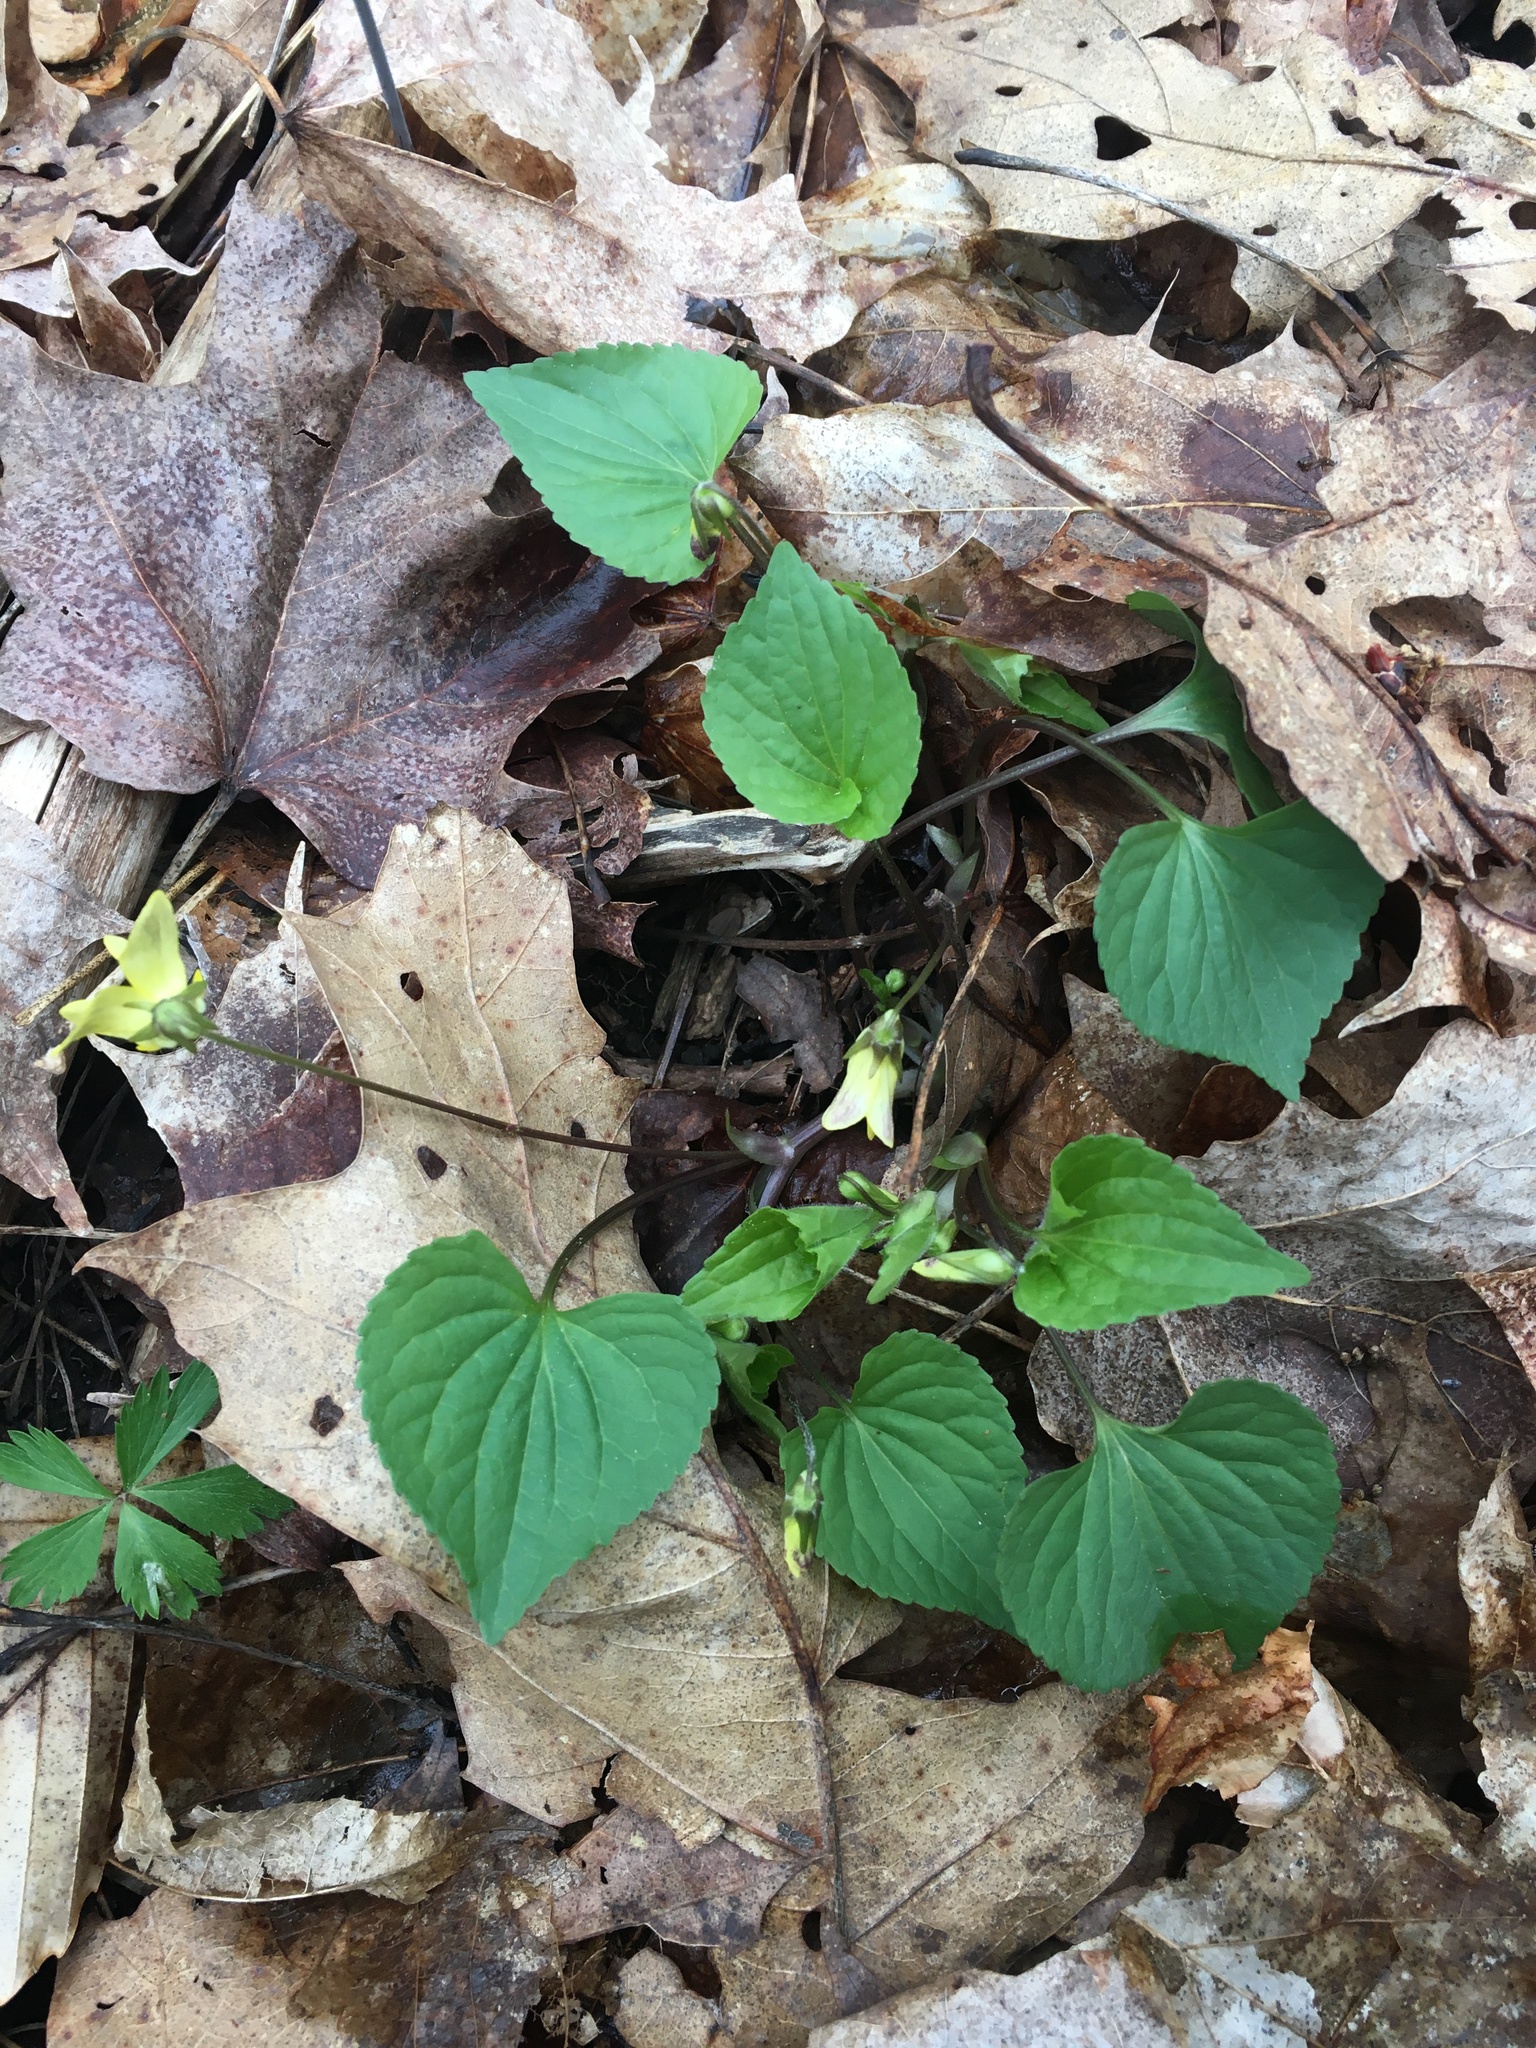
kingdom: Plantae
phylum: Tracheophyta
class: Magnoliopsida
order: Malpighiales
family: Violaceae
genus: Viola
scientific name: Viola eriocarpa
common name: Smooth yellow violet
